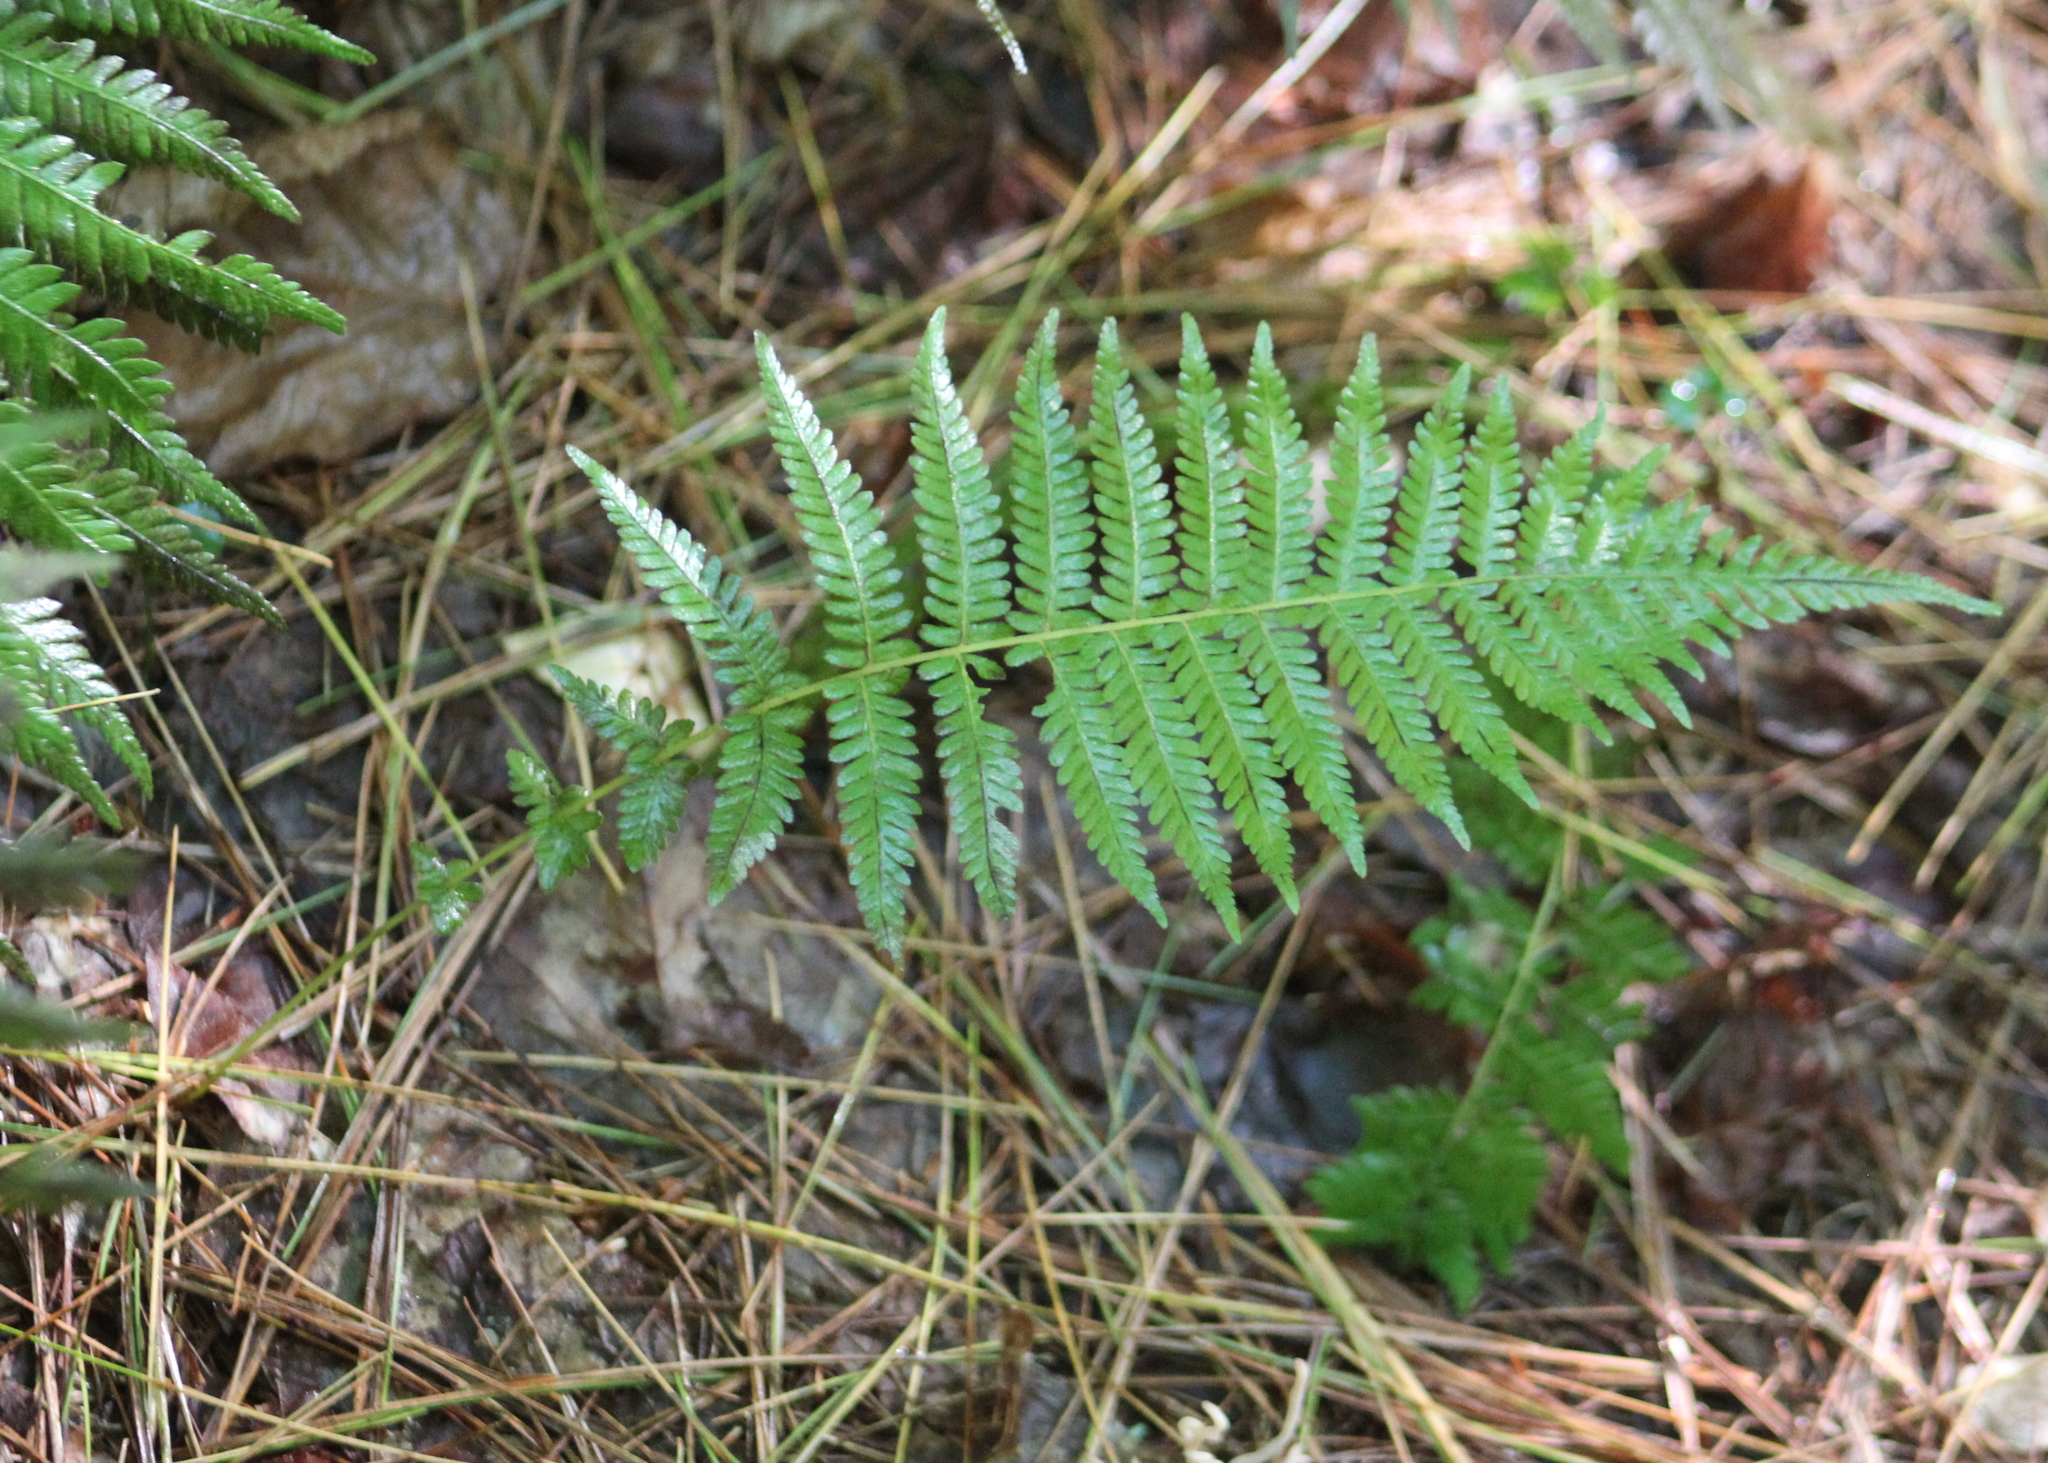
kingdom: Plantae
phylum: Tracheophyta
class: Polypodiopsida
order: Polypodiales
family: Thelypteridaceae
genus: Amauropelta
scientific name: Amauropelta noveboracensis
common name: New york fern
